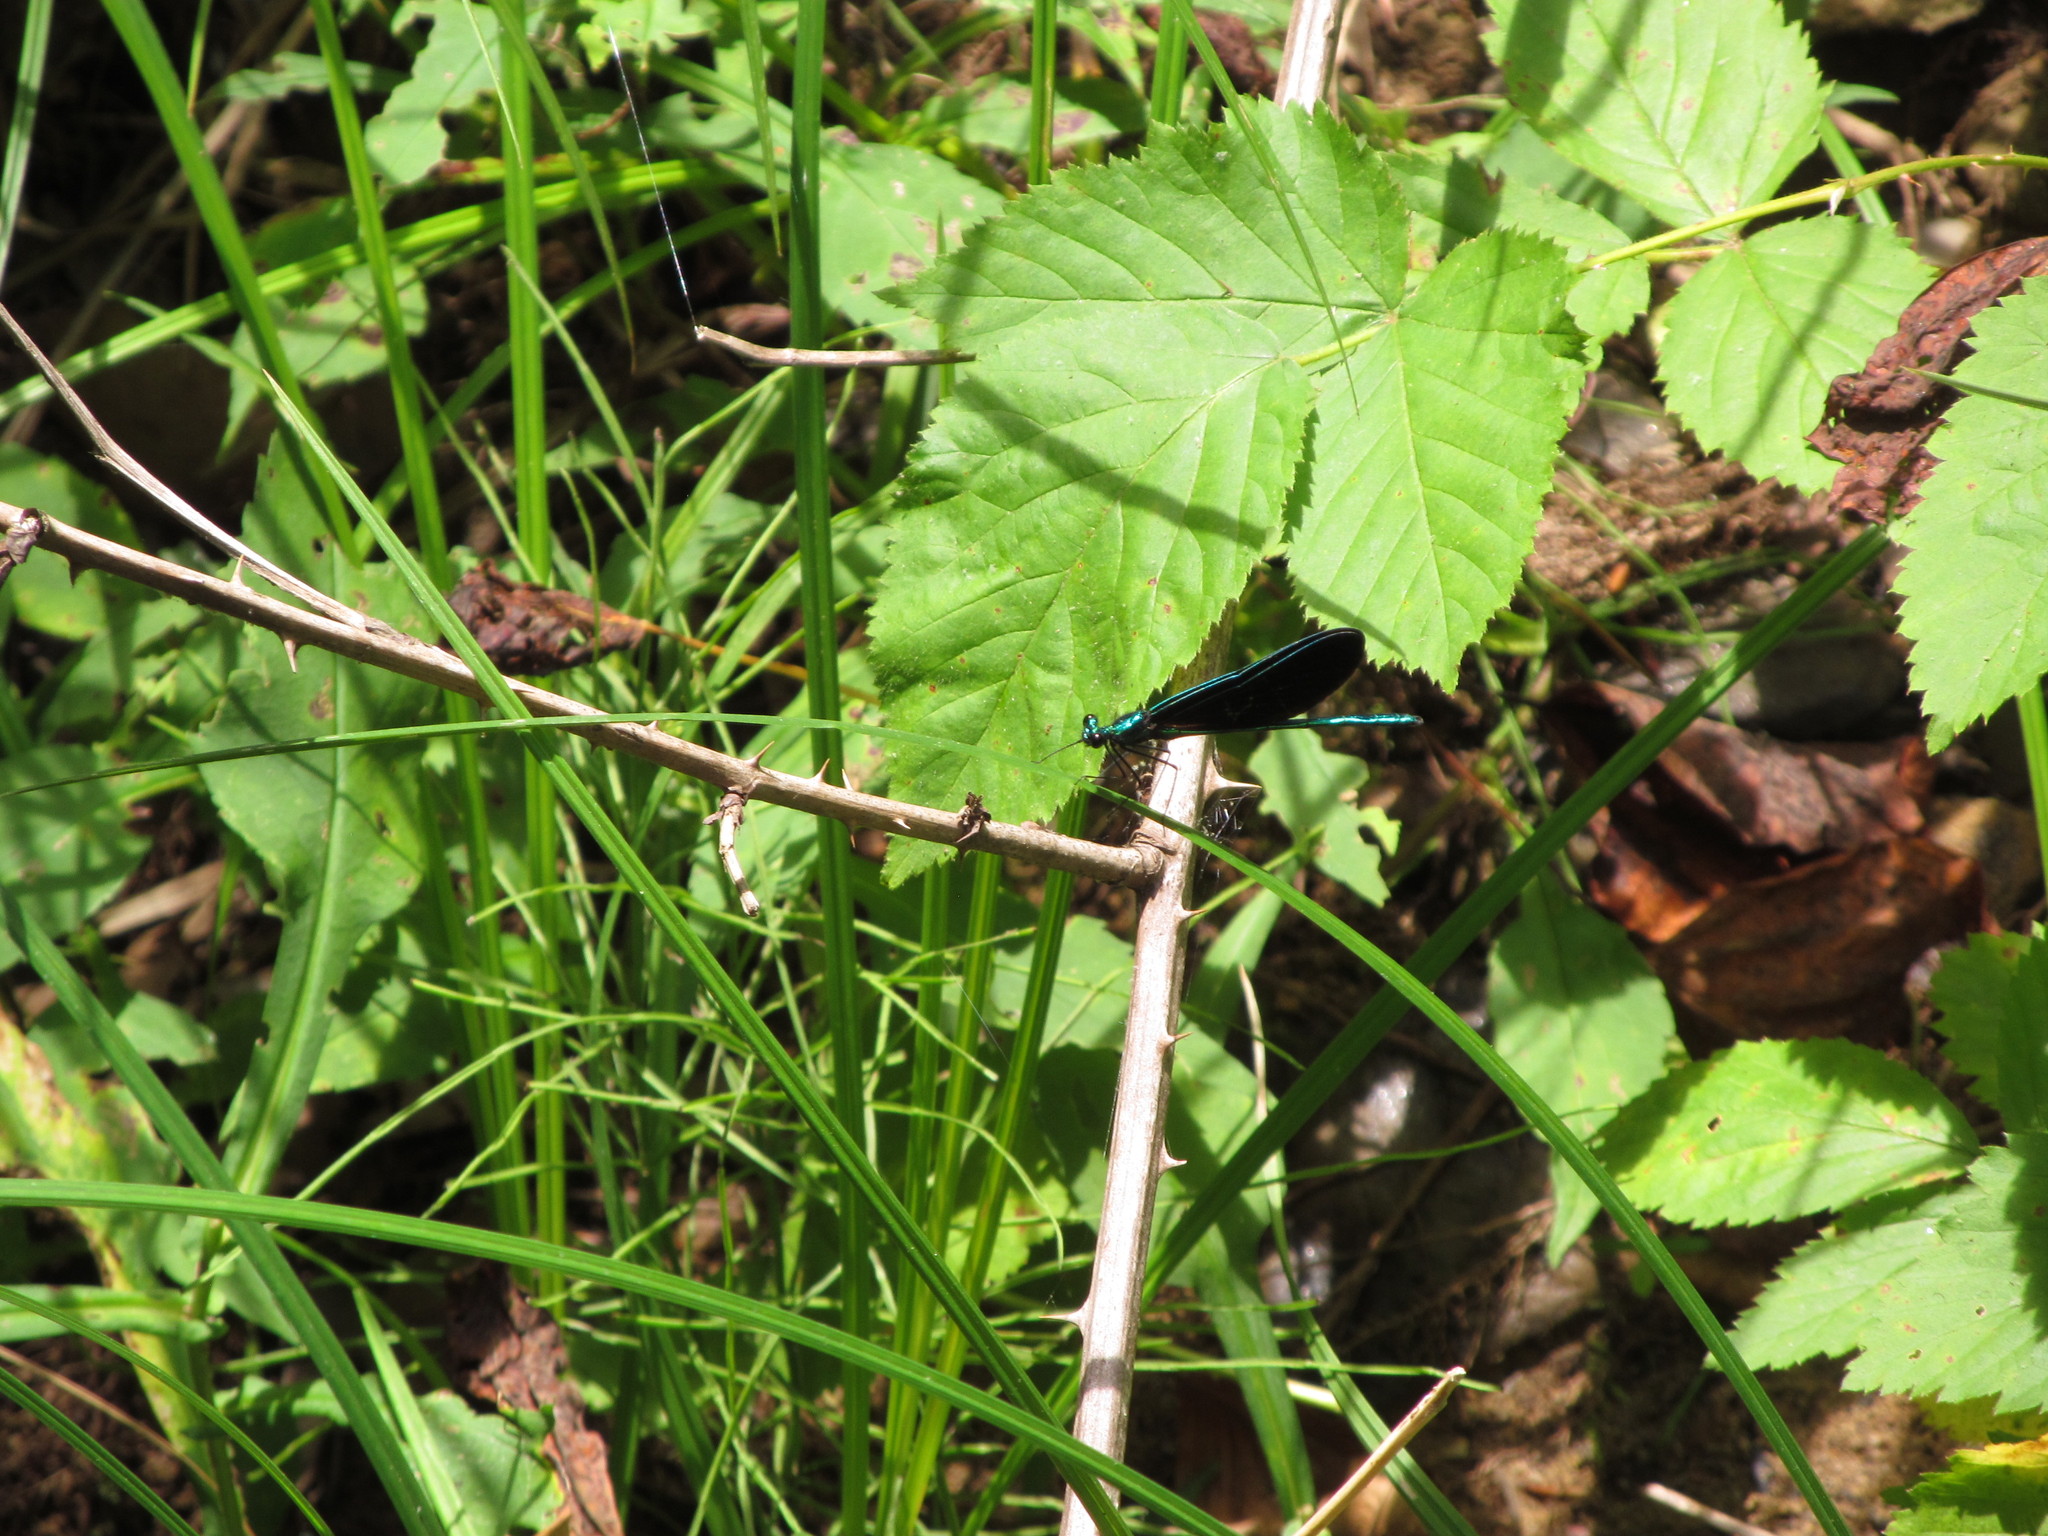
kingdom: Animalia
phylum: Arthropoda
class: Insecta
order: Odonata
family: Calopterygidae
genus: Calopteryx
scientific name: Calopteryx maculata
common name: Ebony jewelwing
